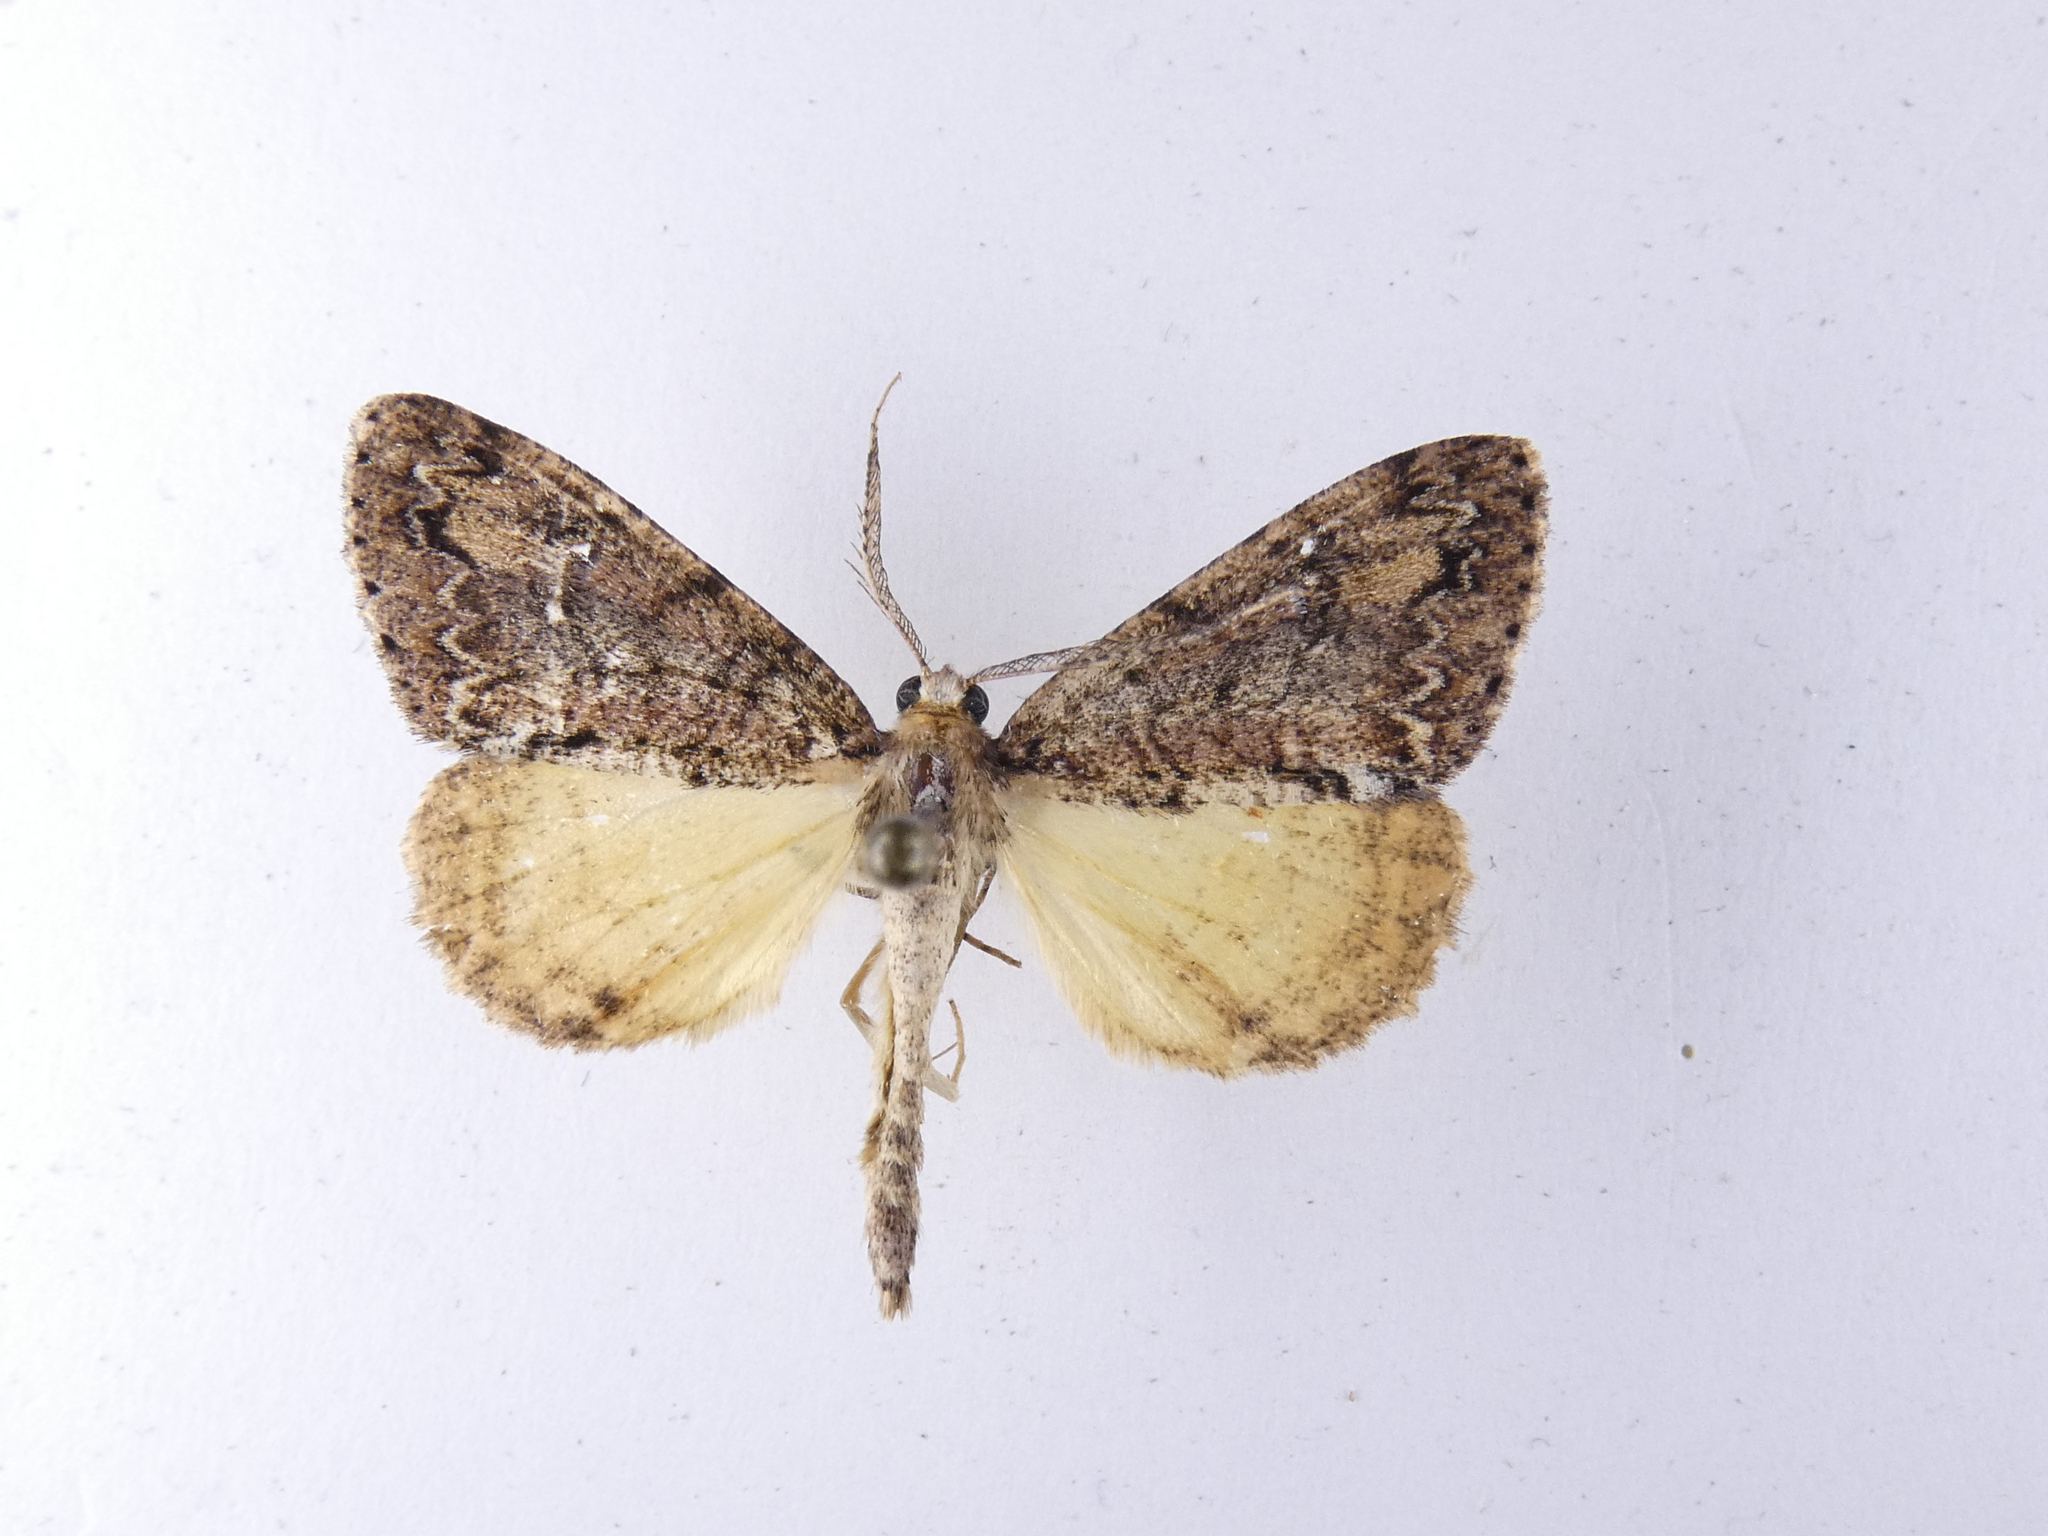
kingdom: Animalia
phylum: Arthropoda
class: Insecta
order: Lepidoptera
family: Geometridae
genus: Pseudocoremia
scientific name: Pseudocoremia suavis
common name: Common forest looper
